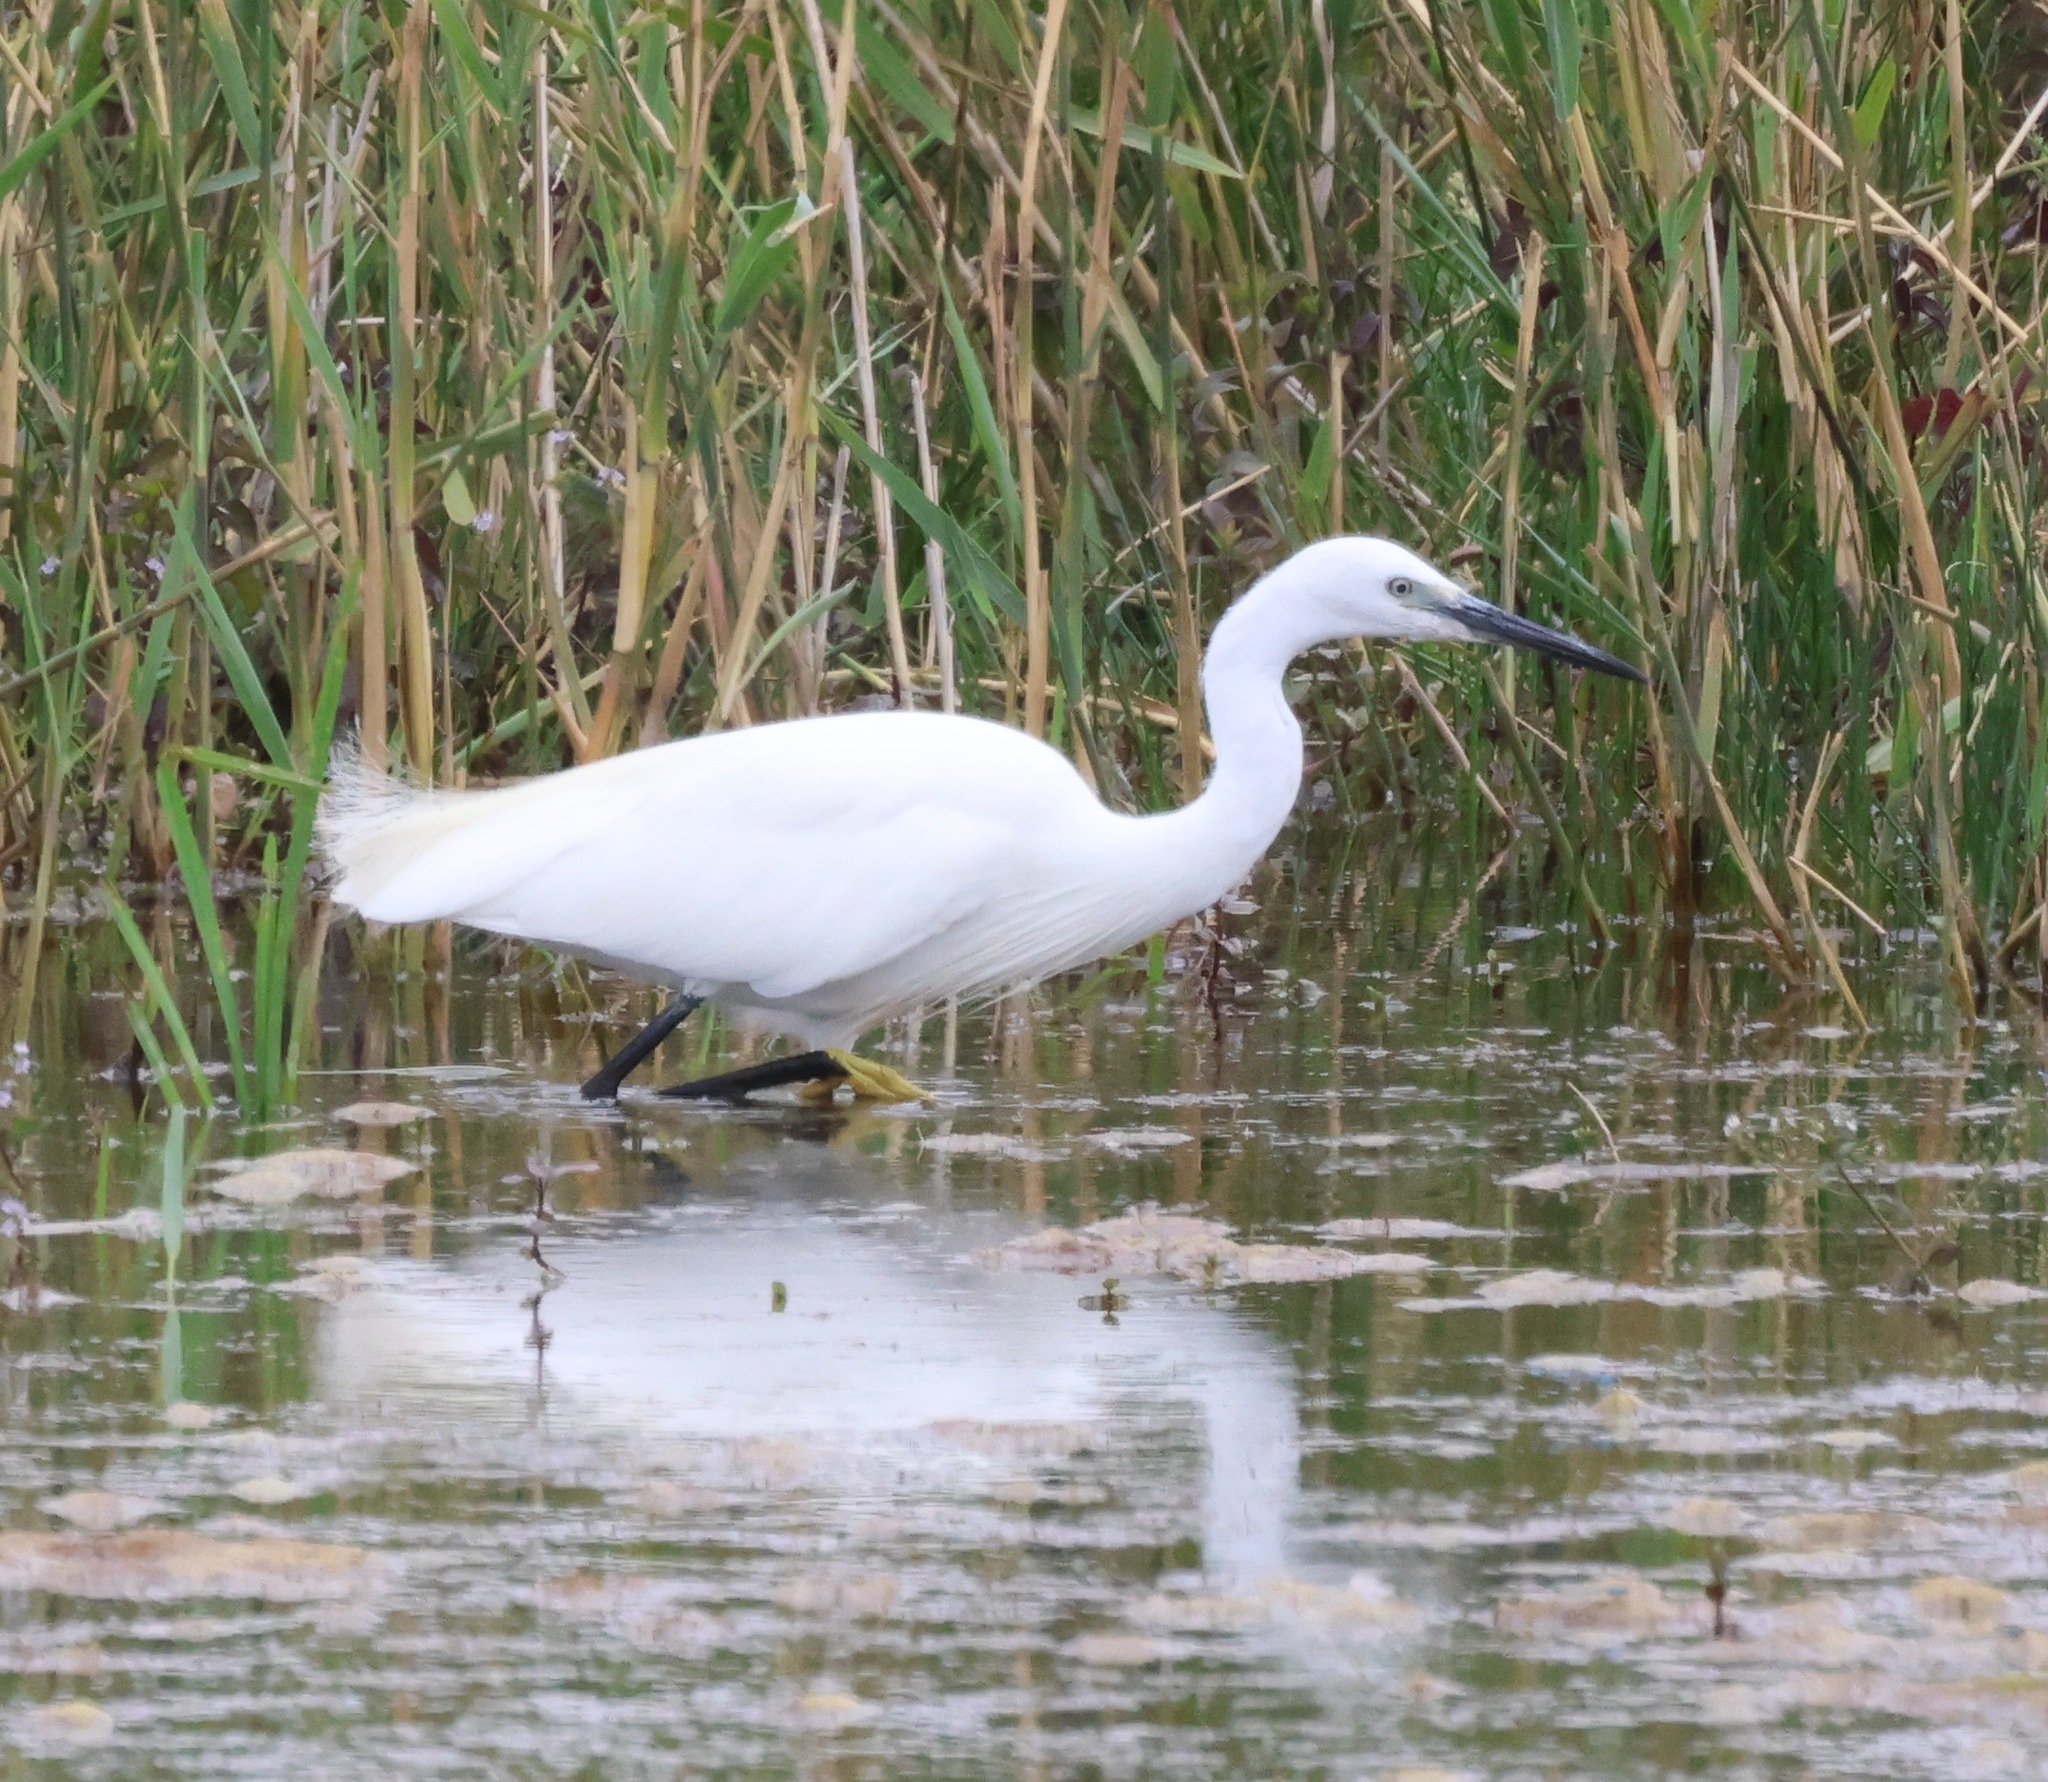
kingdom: Animalia
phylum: Chordata
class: Aves
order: Pelecaniformes
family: Ardeidae
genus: Egretta
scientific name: Egretta garzetta
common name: Little egret
